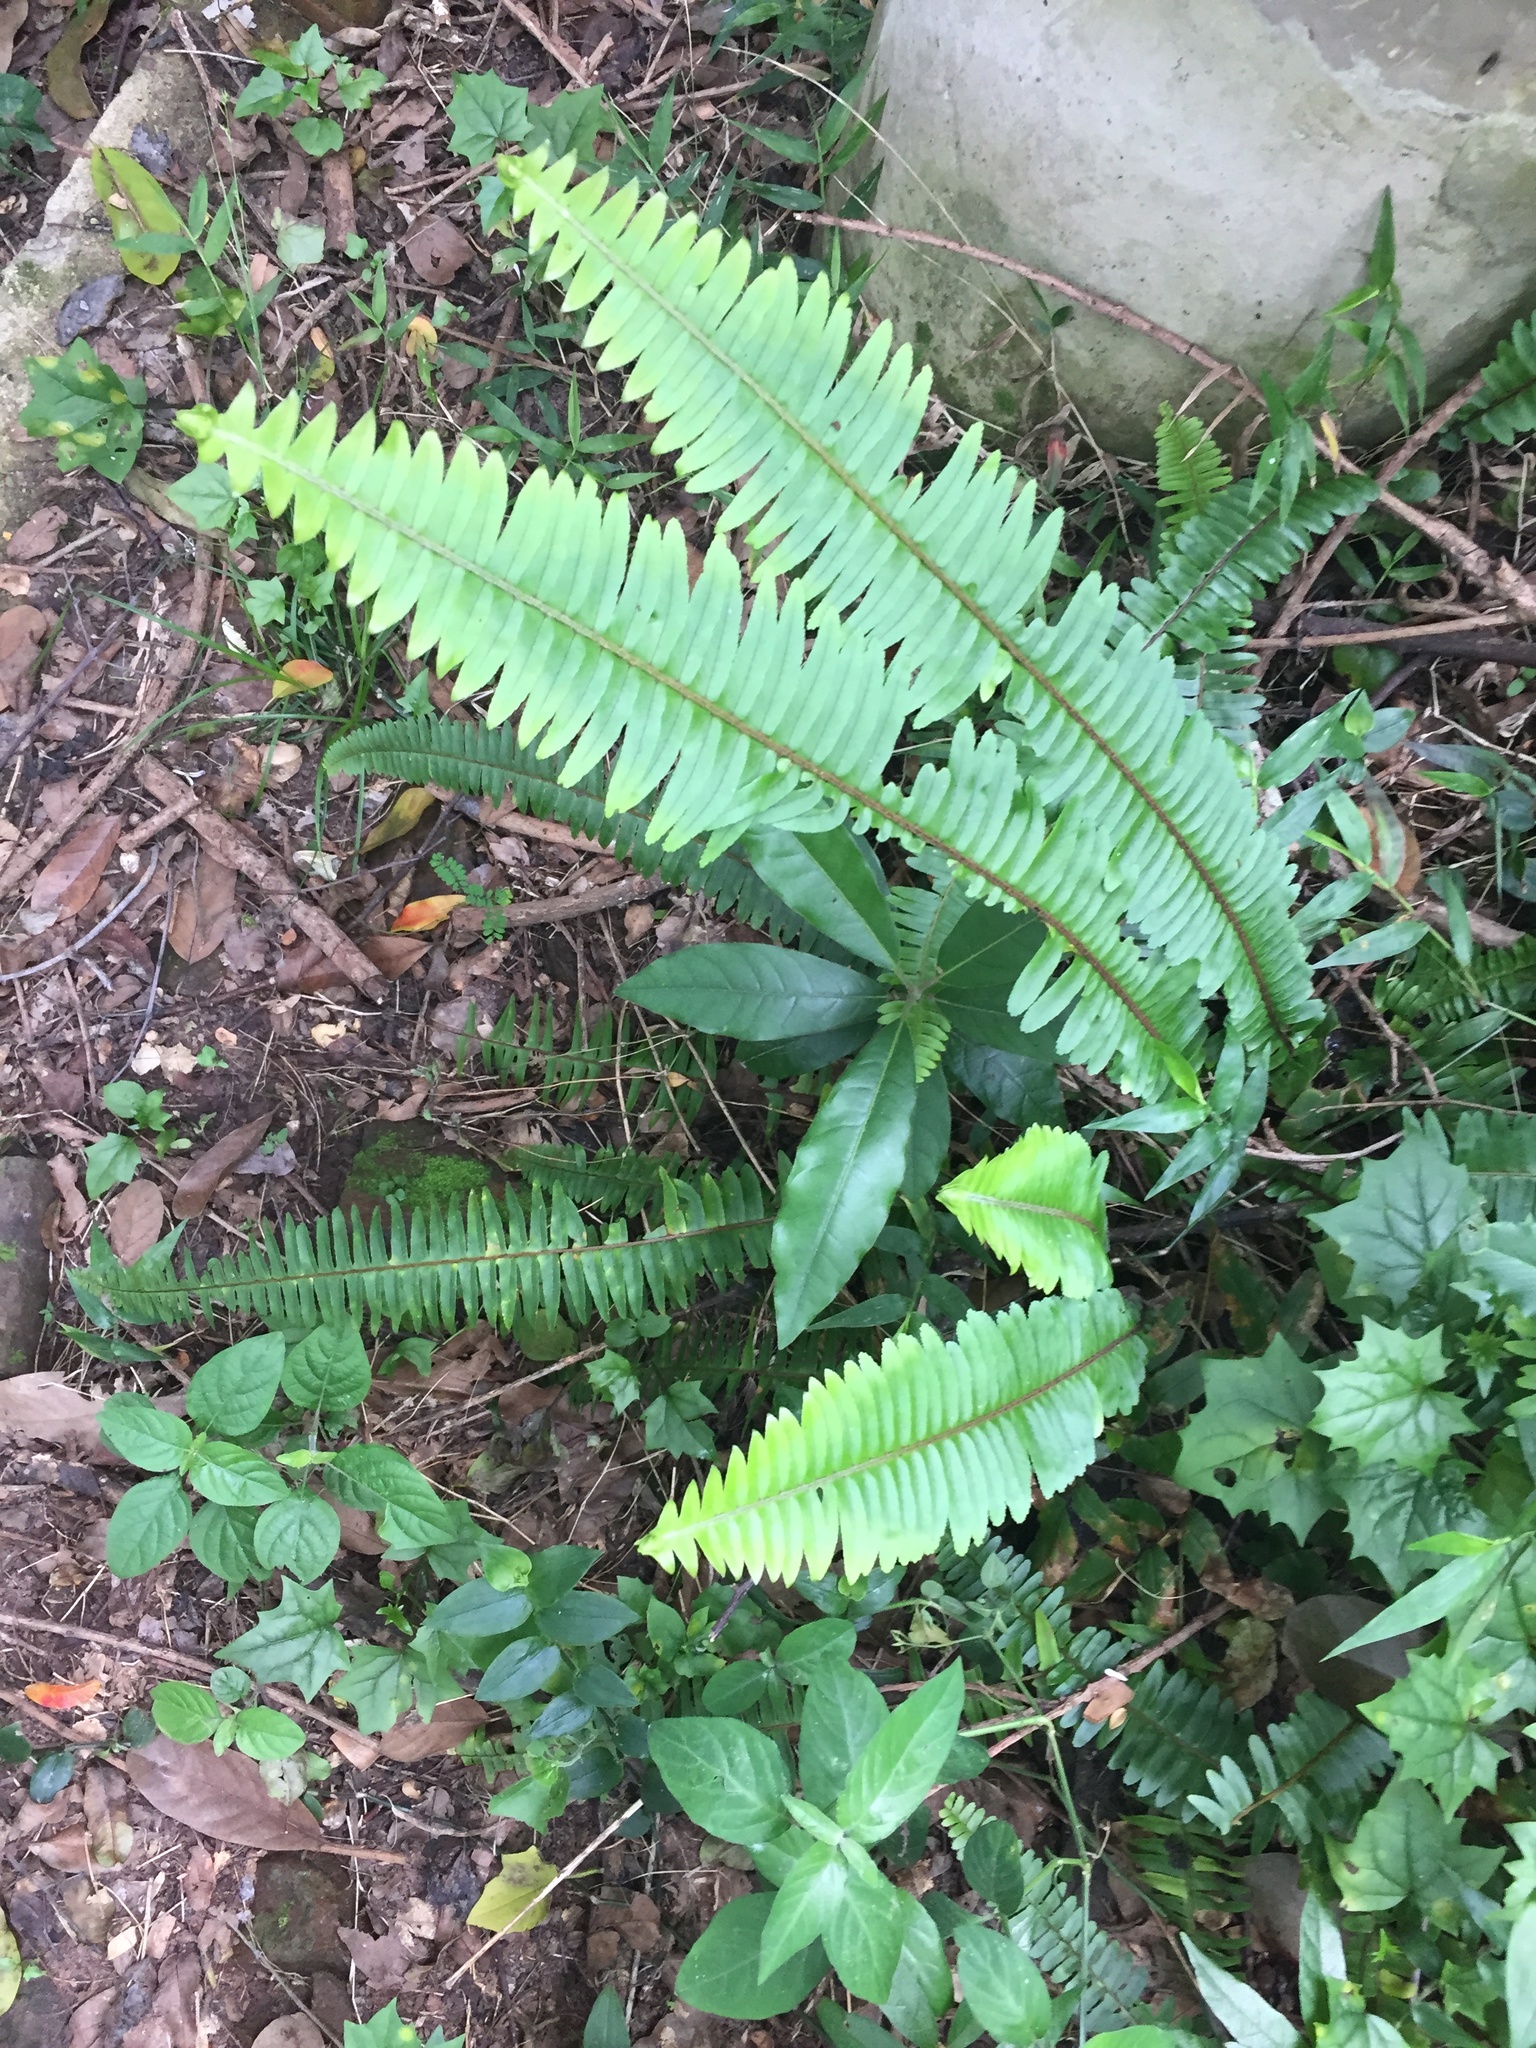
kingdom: Plantae
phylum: Tracheophyta
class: Polypodiopsida
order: Polypodiales
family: Nephrolepidaceae
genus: Nephrolepis
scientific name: Nephrolepis cordifolia
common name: Narrow swordfern
